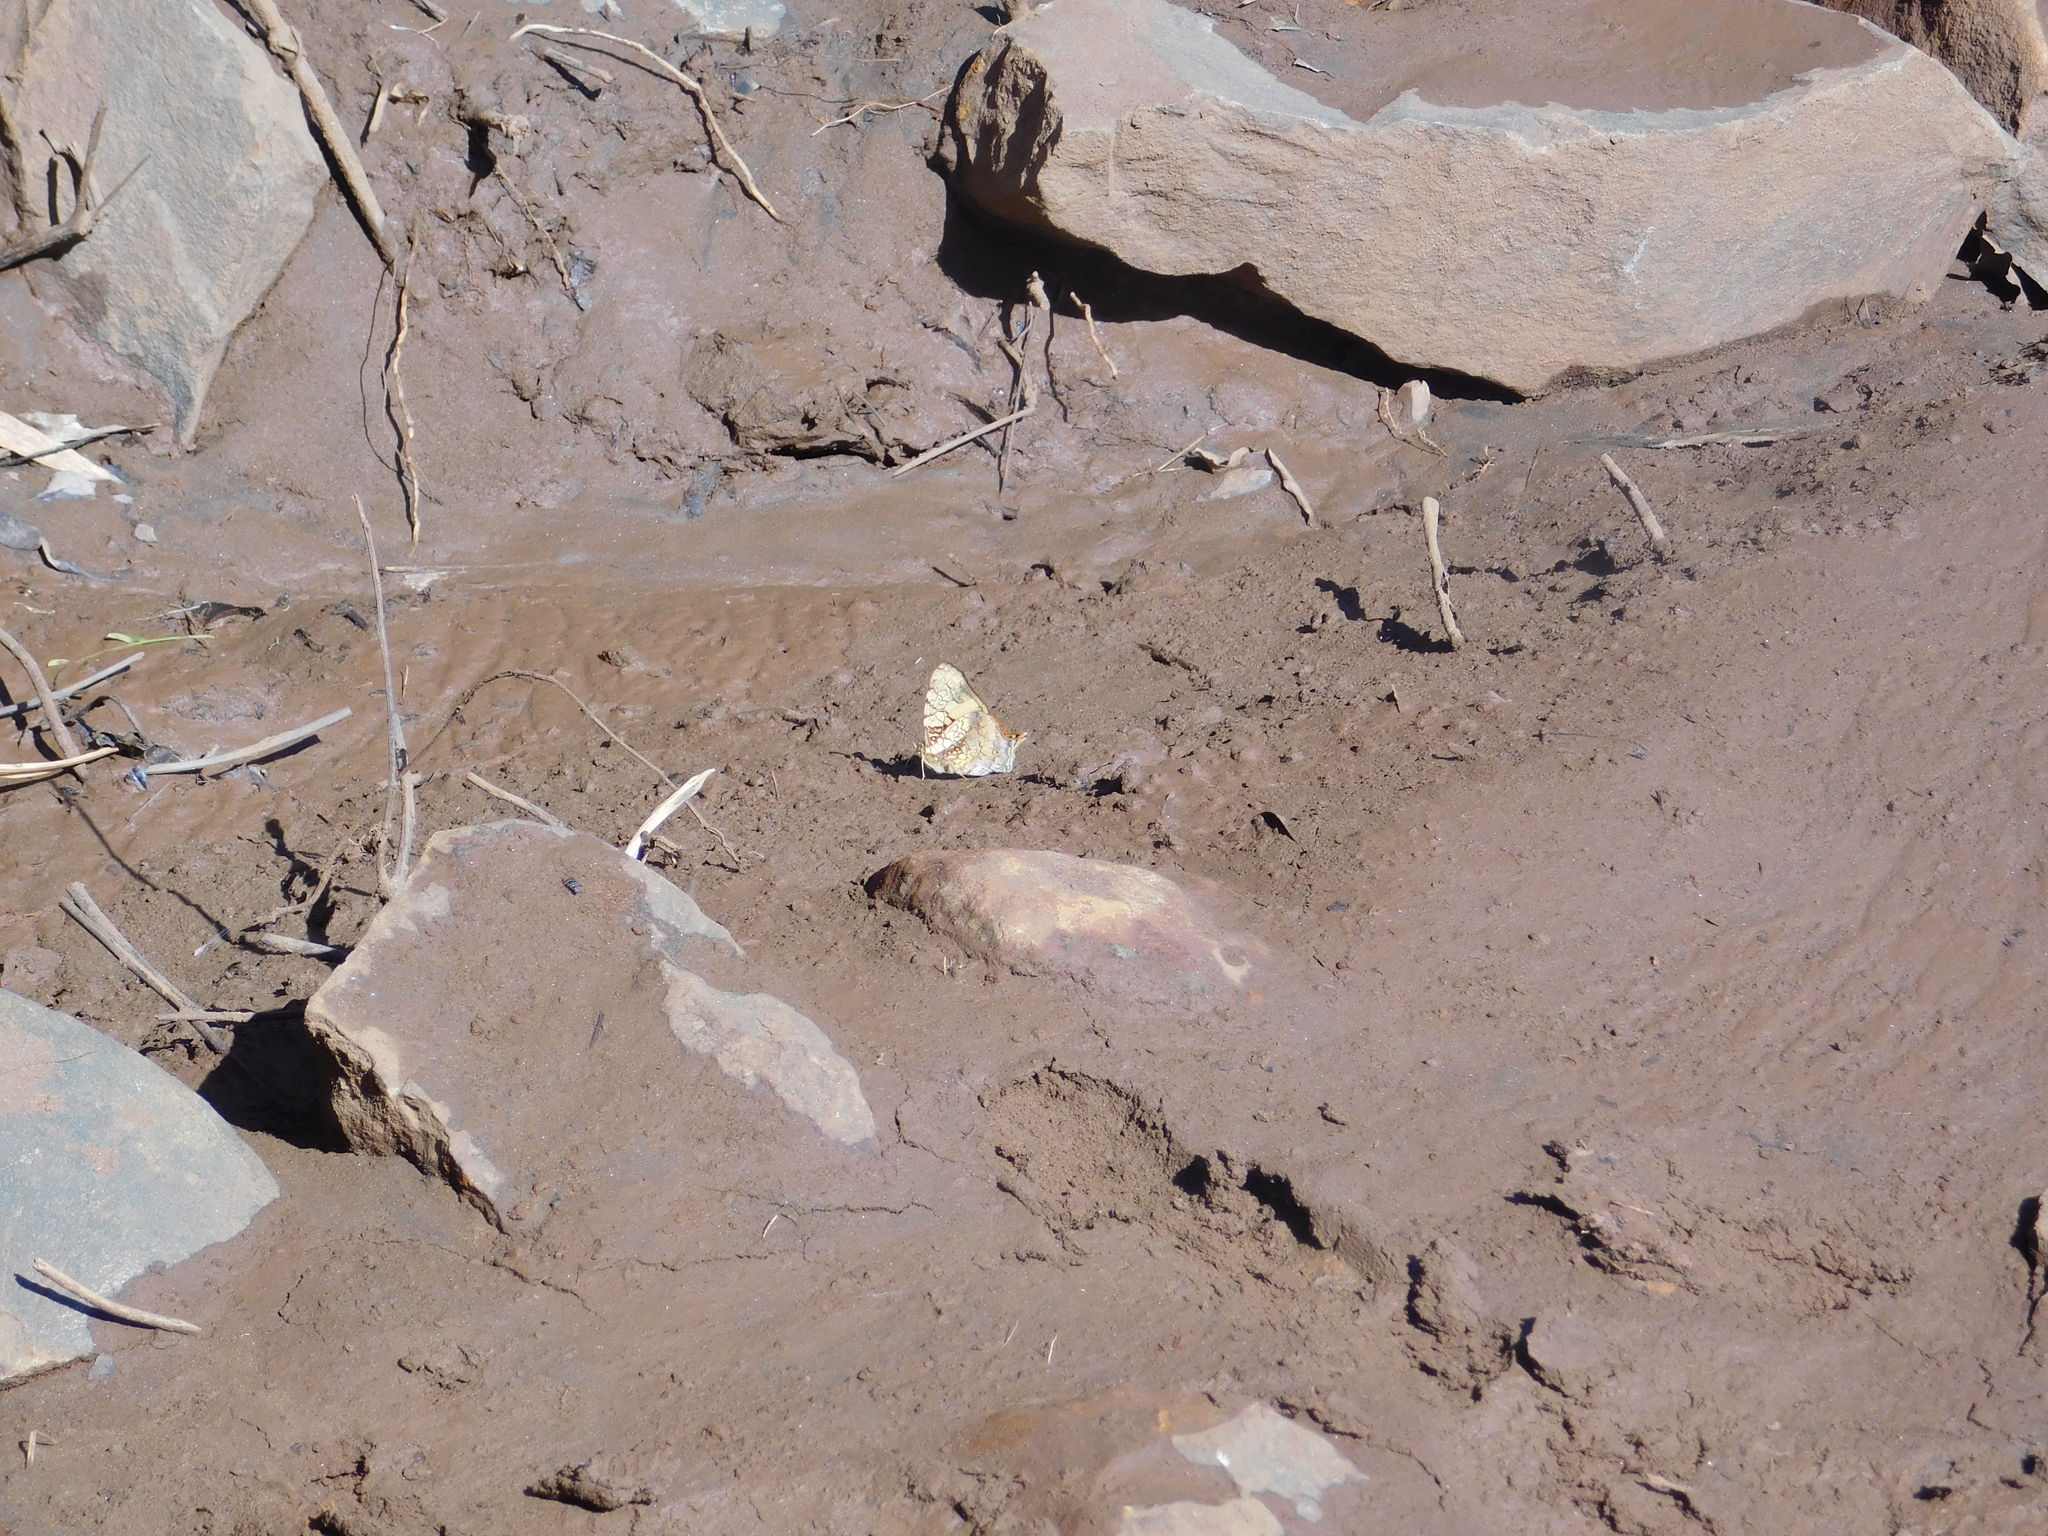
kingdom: Animalia
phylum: Arthropoda
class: Insecta
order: Lepidoptera
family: Nymphalidae
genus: Hypanartia
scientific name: Hypanartia lethe
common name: Orange mapwing
